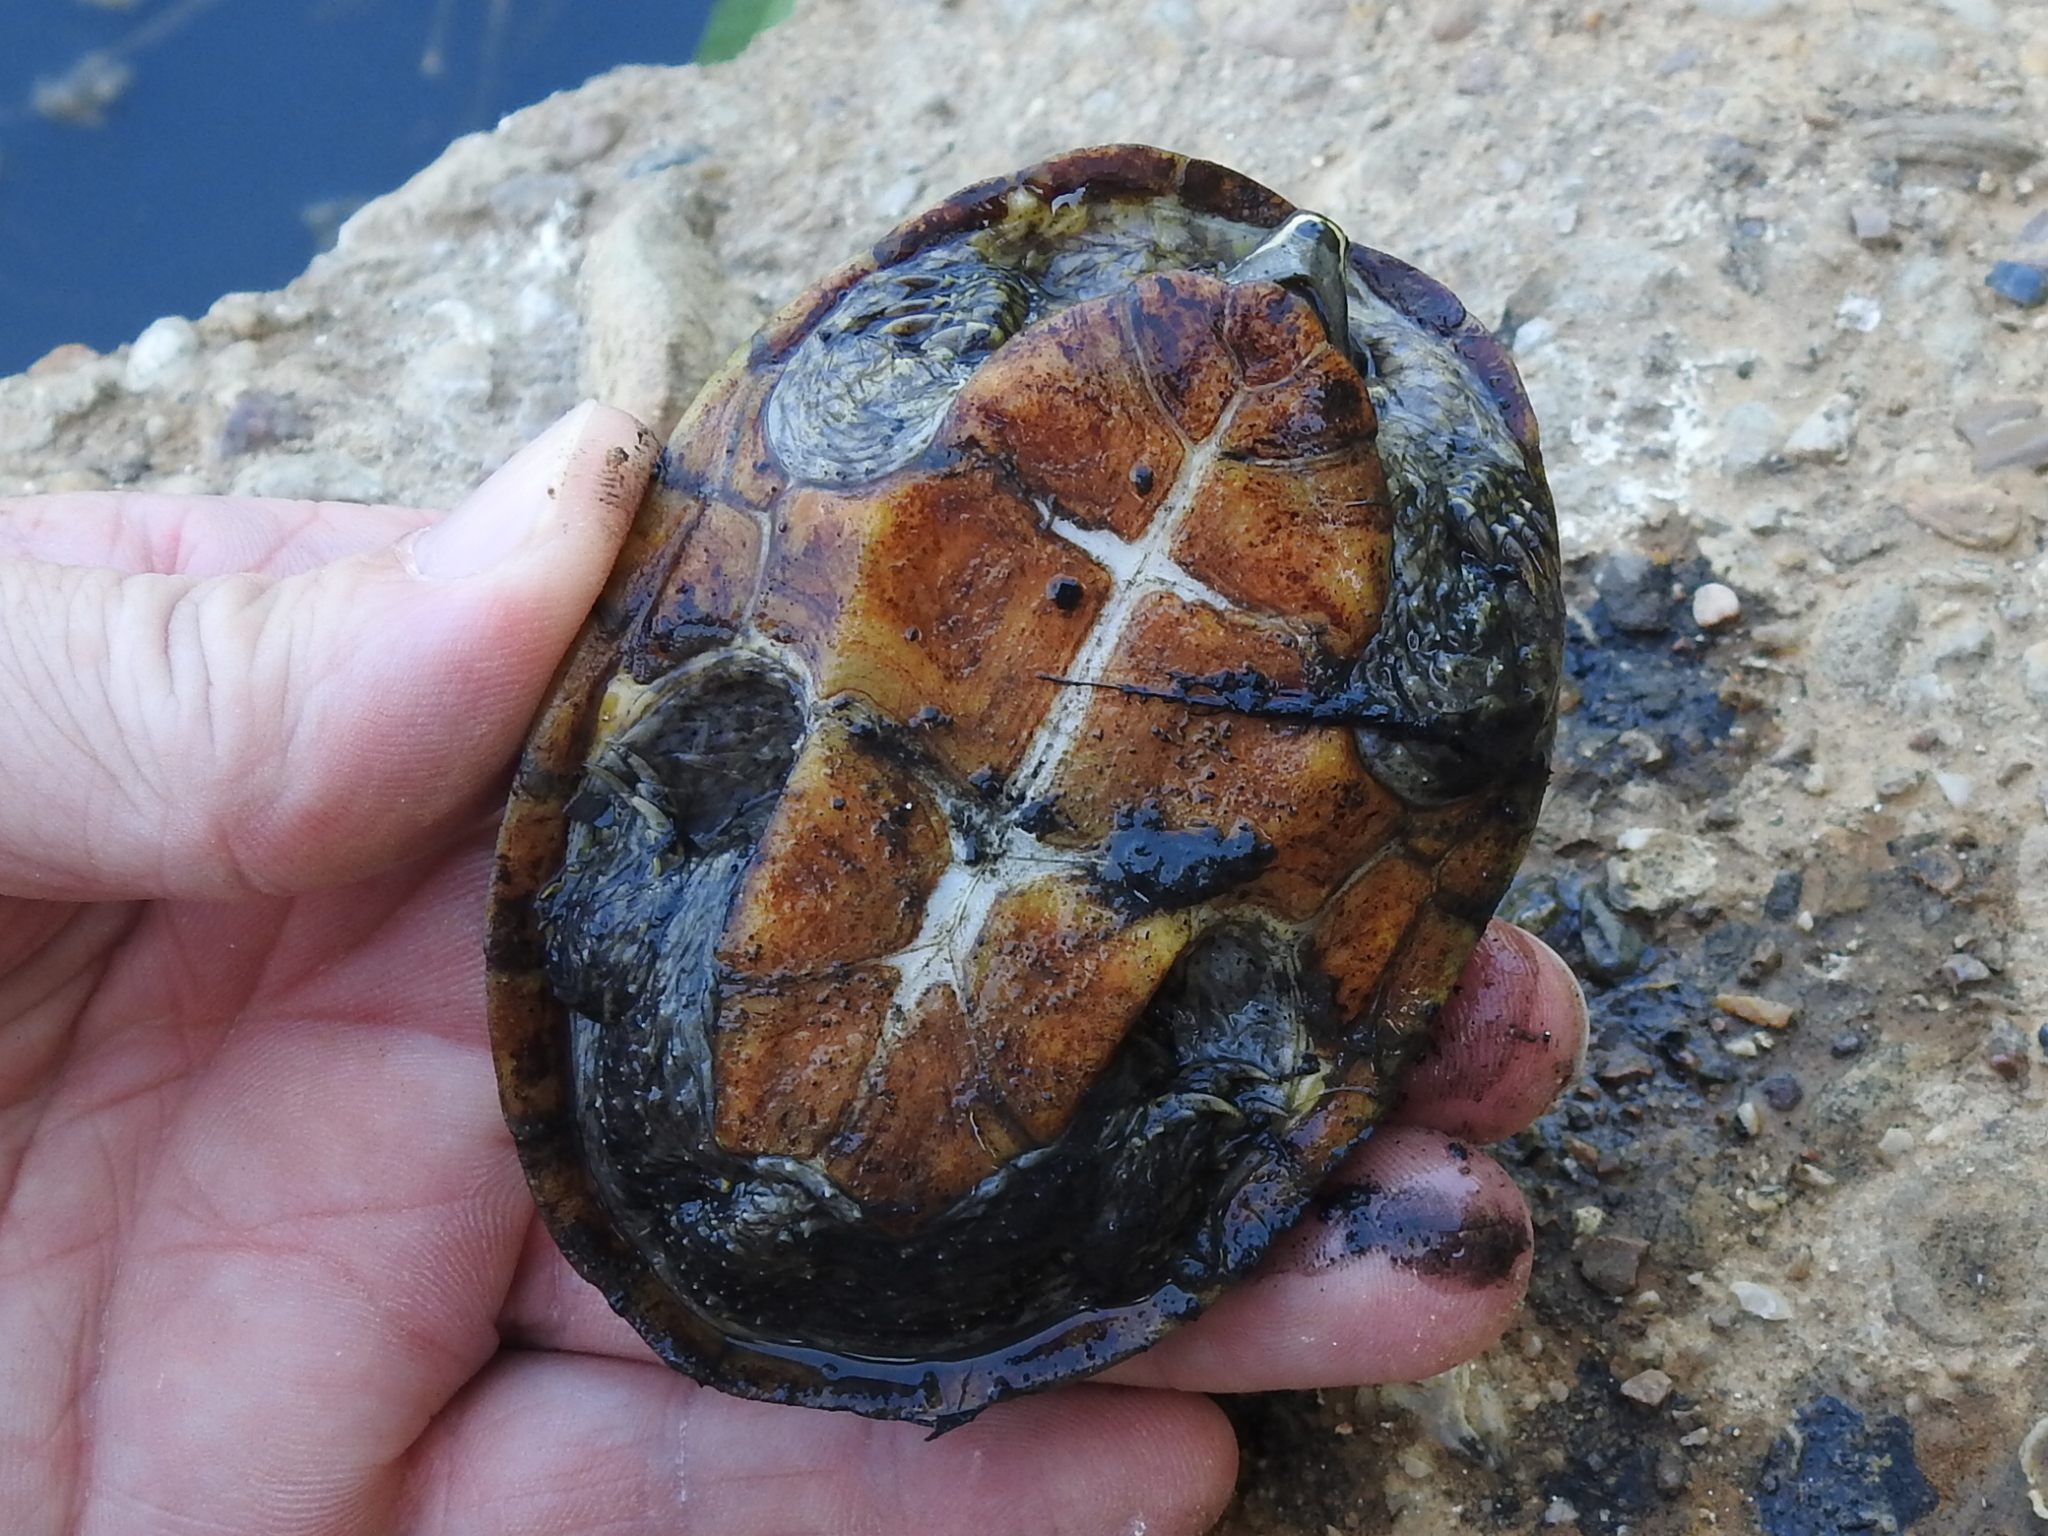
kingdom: Animalia
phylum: Chordata
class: Testudines
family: Kinosternidae
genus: Sternotherus
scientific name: Sternotherus odoratus
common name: Common musk turtle
